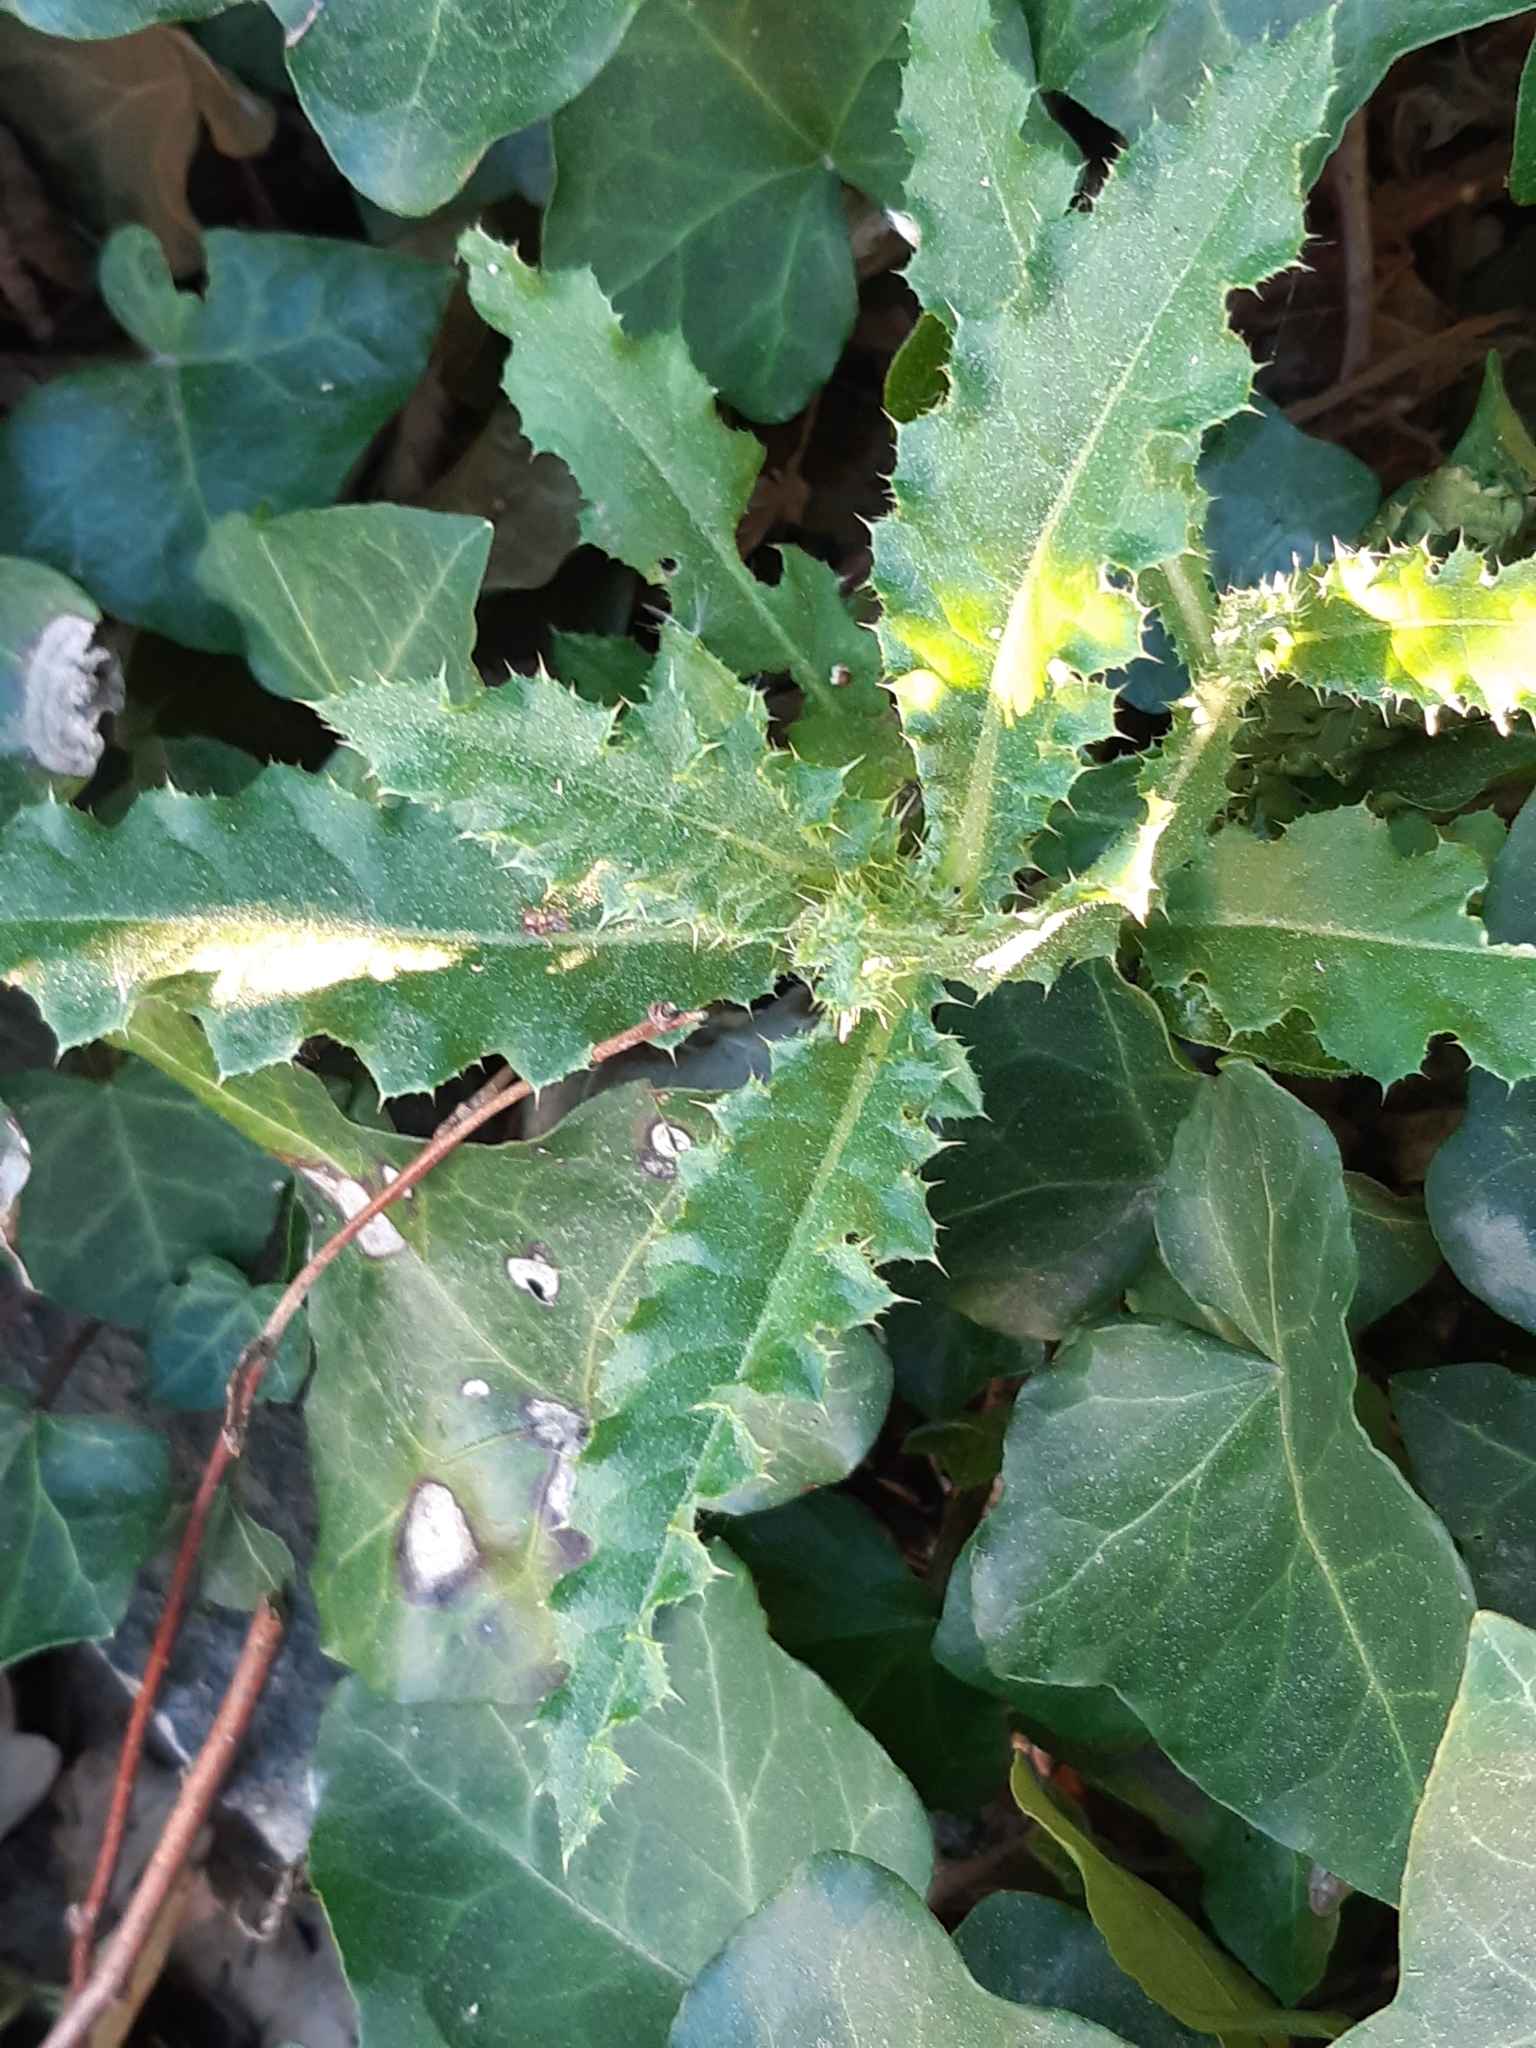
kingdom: Plantae
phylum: Tracheophyta
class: Magnoliopsida
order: Asterales
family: Asteraceae
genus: Cirsium
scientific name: Cirsium arvense
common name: Creeping thistle
